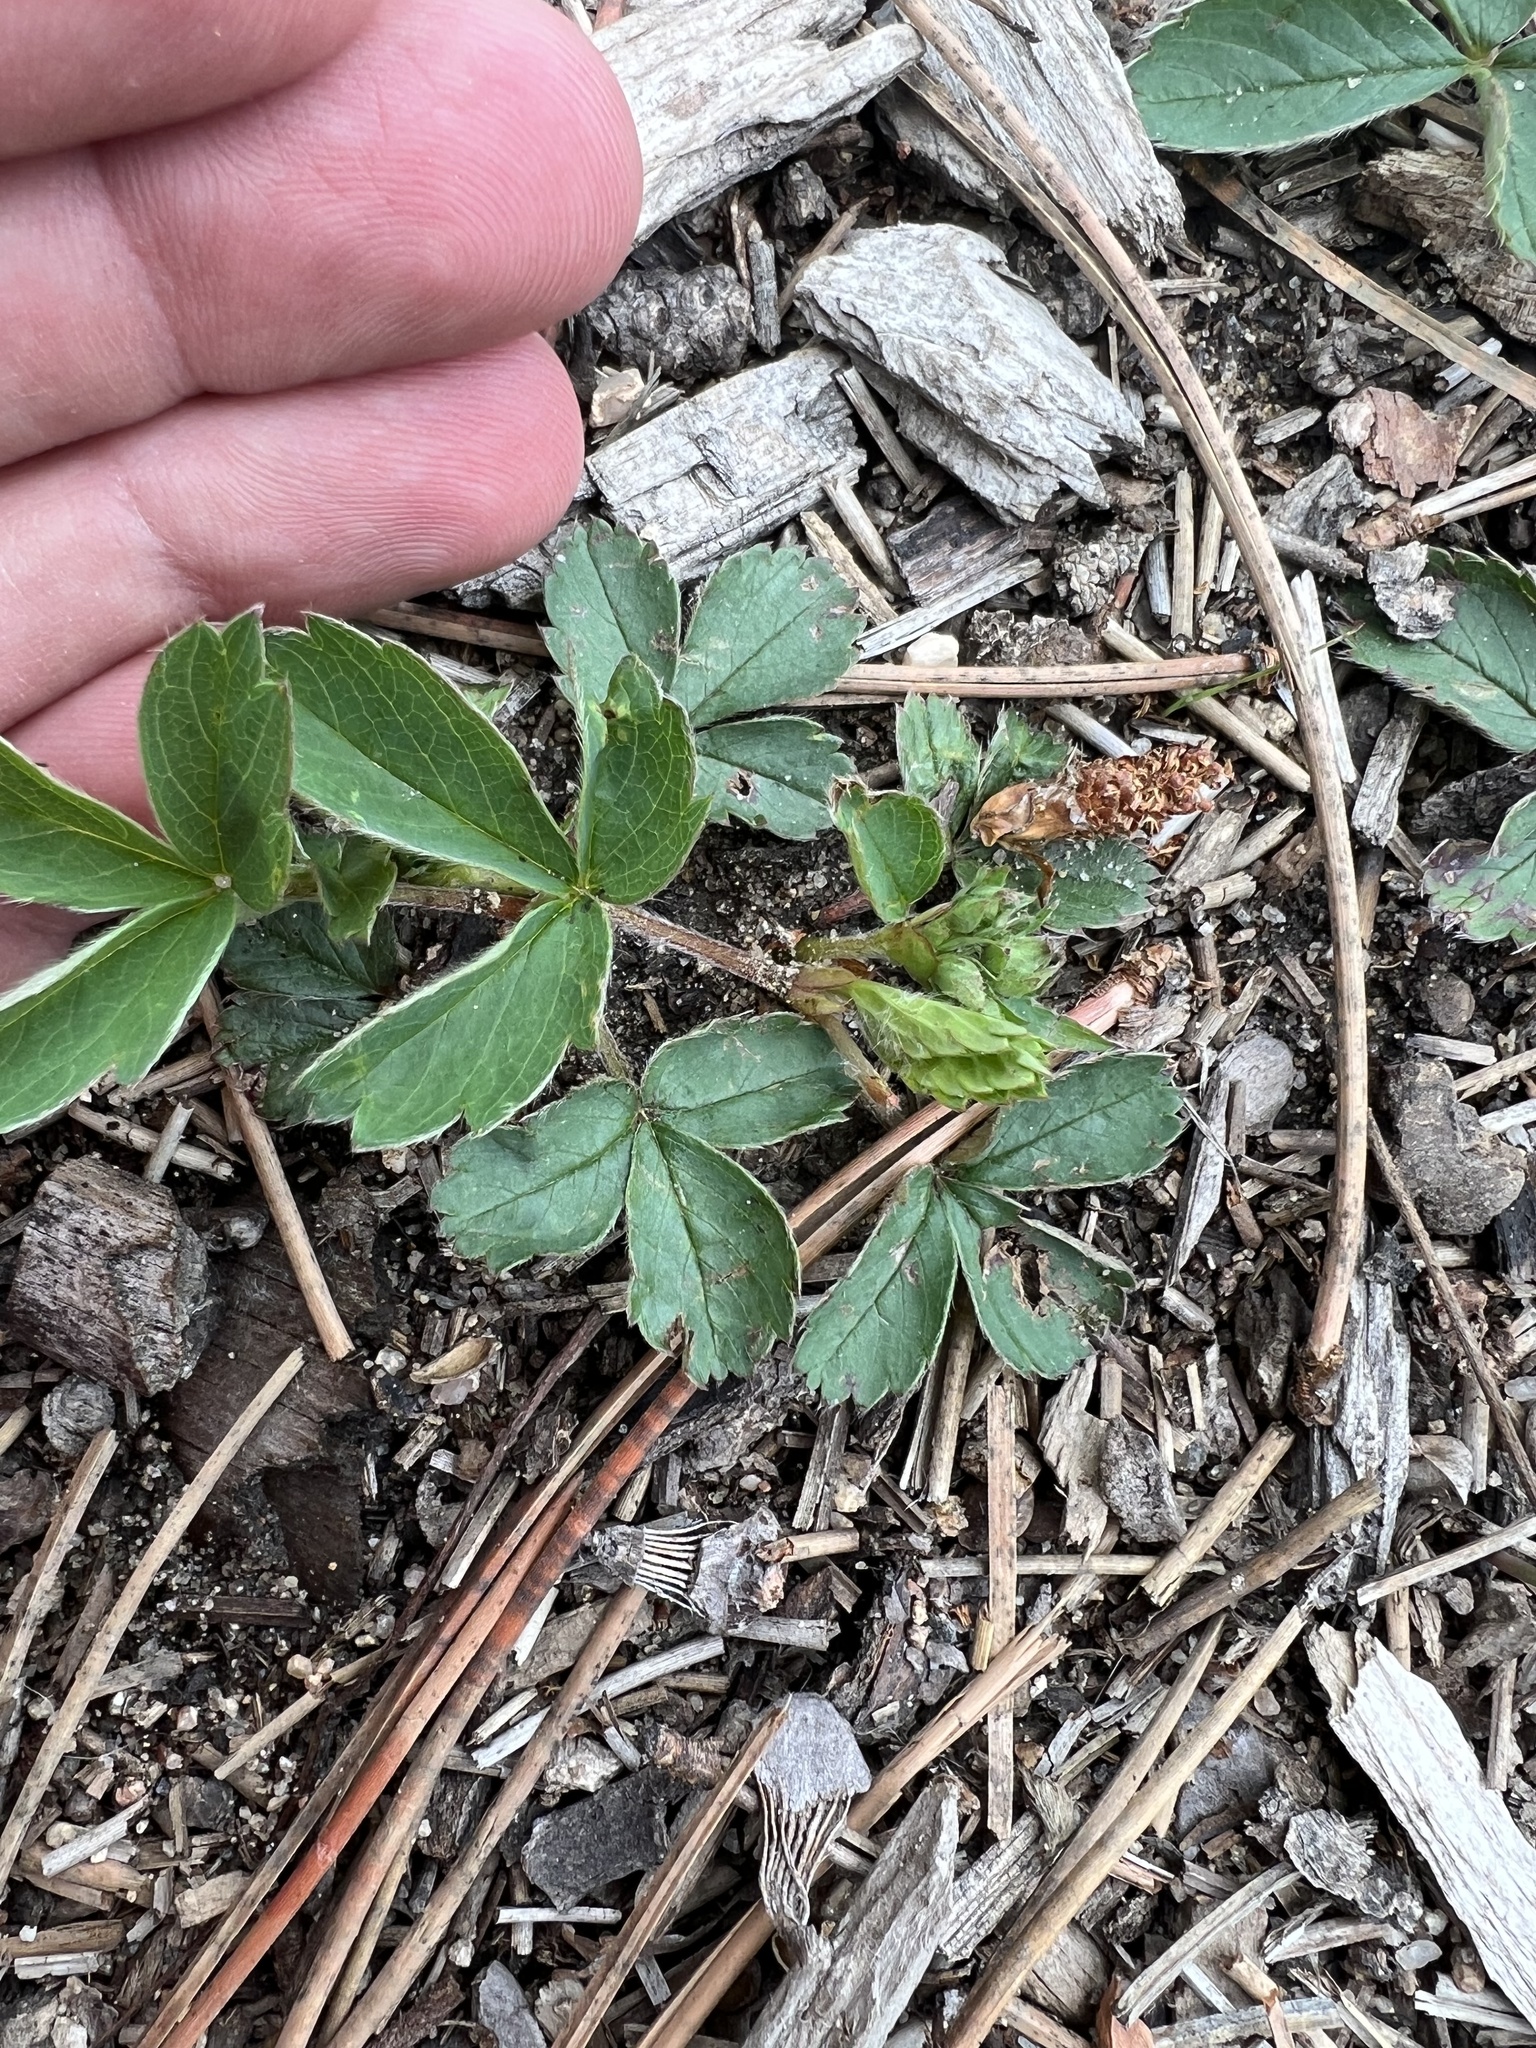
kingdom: Plantae
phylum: Tracheophyta
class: Magnoliopsida
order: Rosales
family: Rosaceae
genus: Fragaria
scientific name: Fragaria virginiana
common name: Thickleaved wild strawberry
